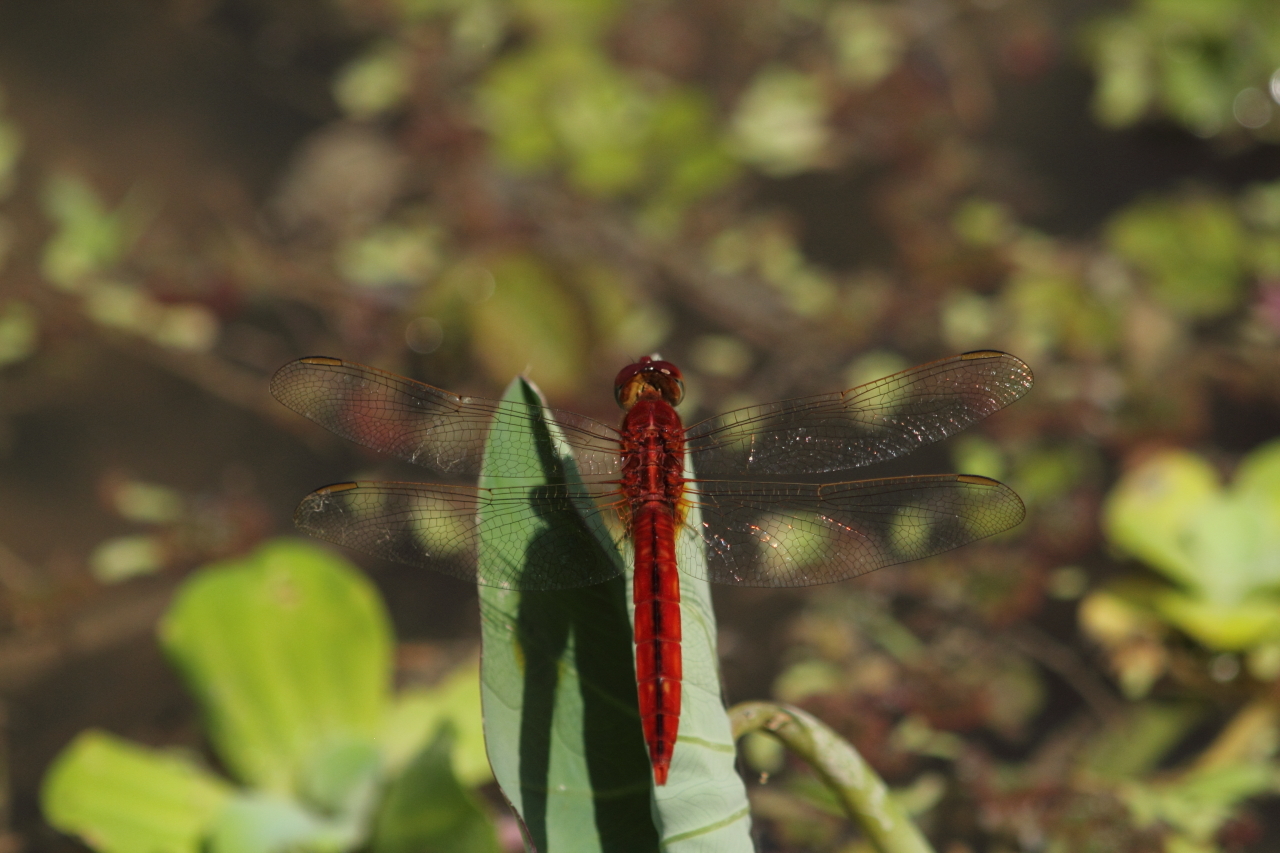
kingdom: Animalia
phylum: Arthropoda
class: Insecta
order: Odonata
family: Libellulidae
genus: Crocothemis
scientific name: Crocothemis servilia
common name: Scarlet skimmer
